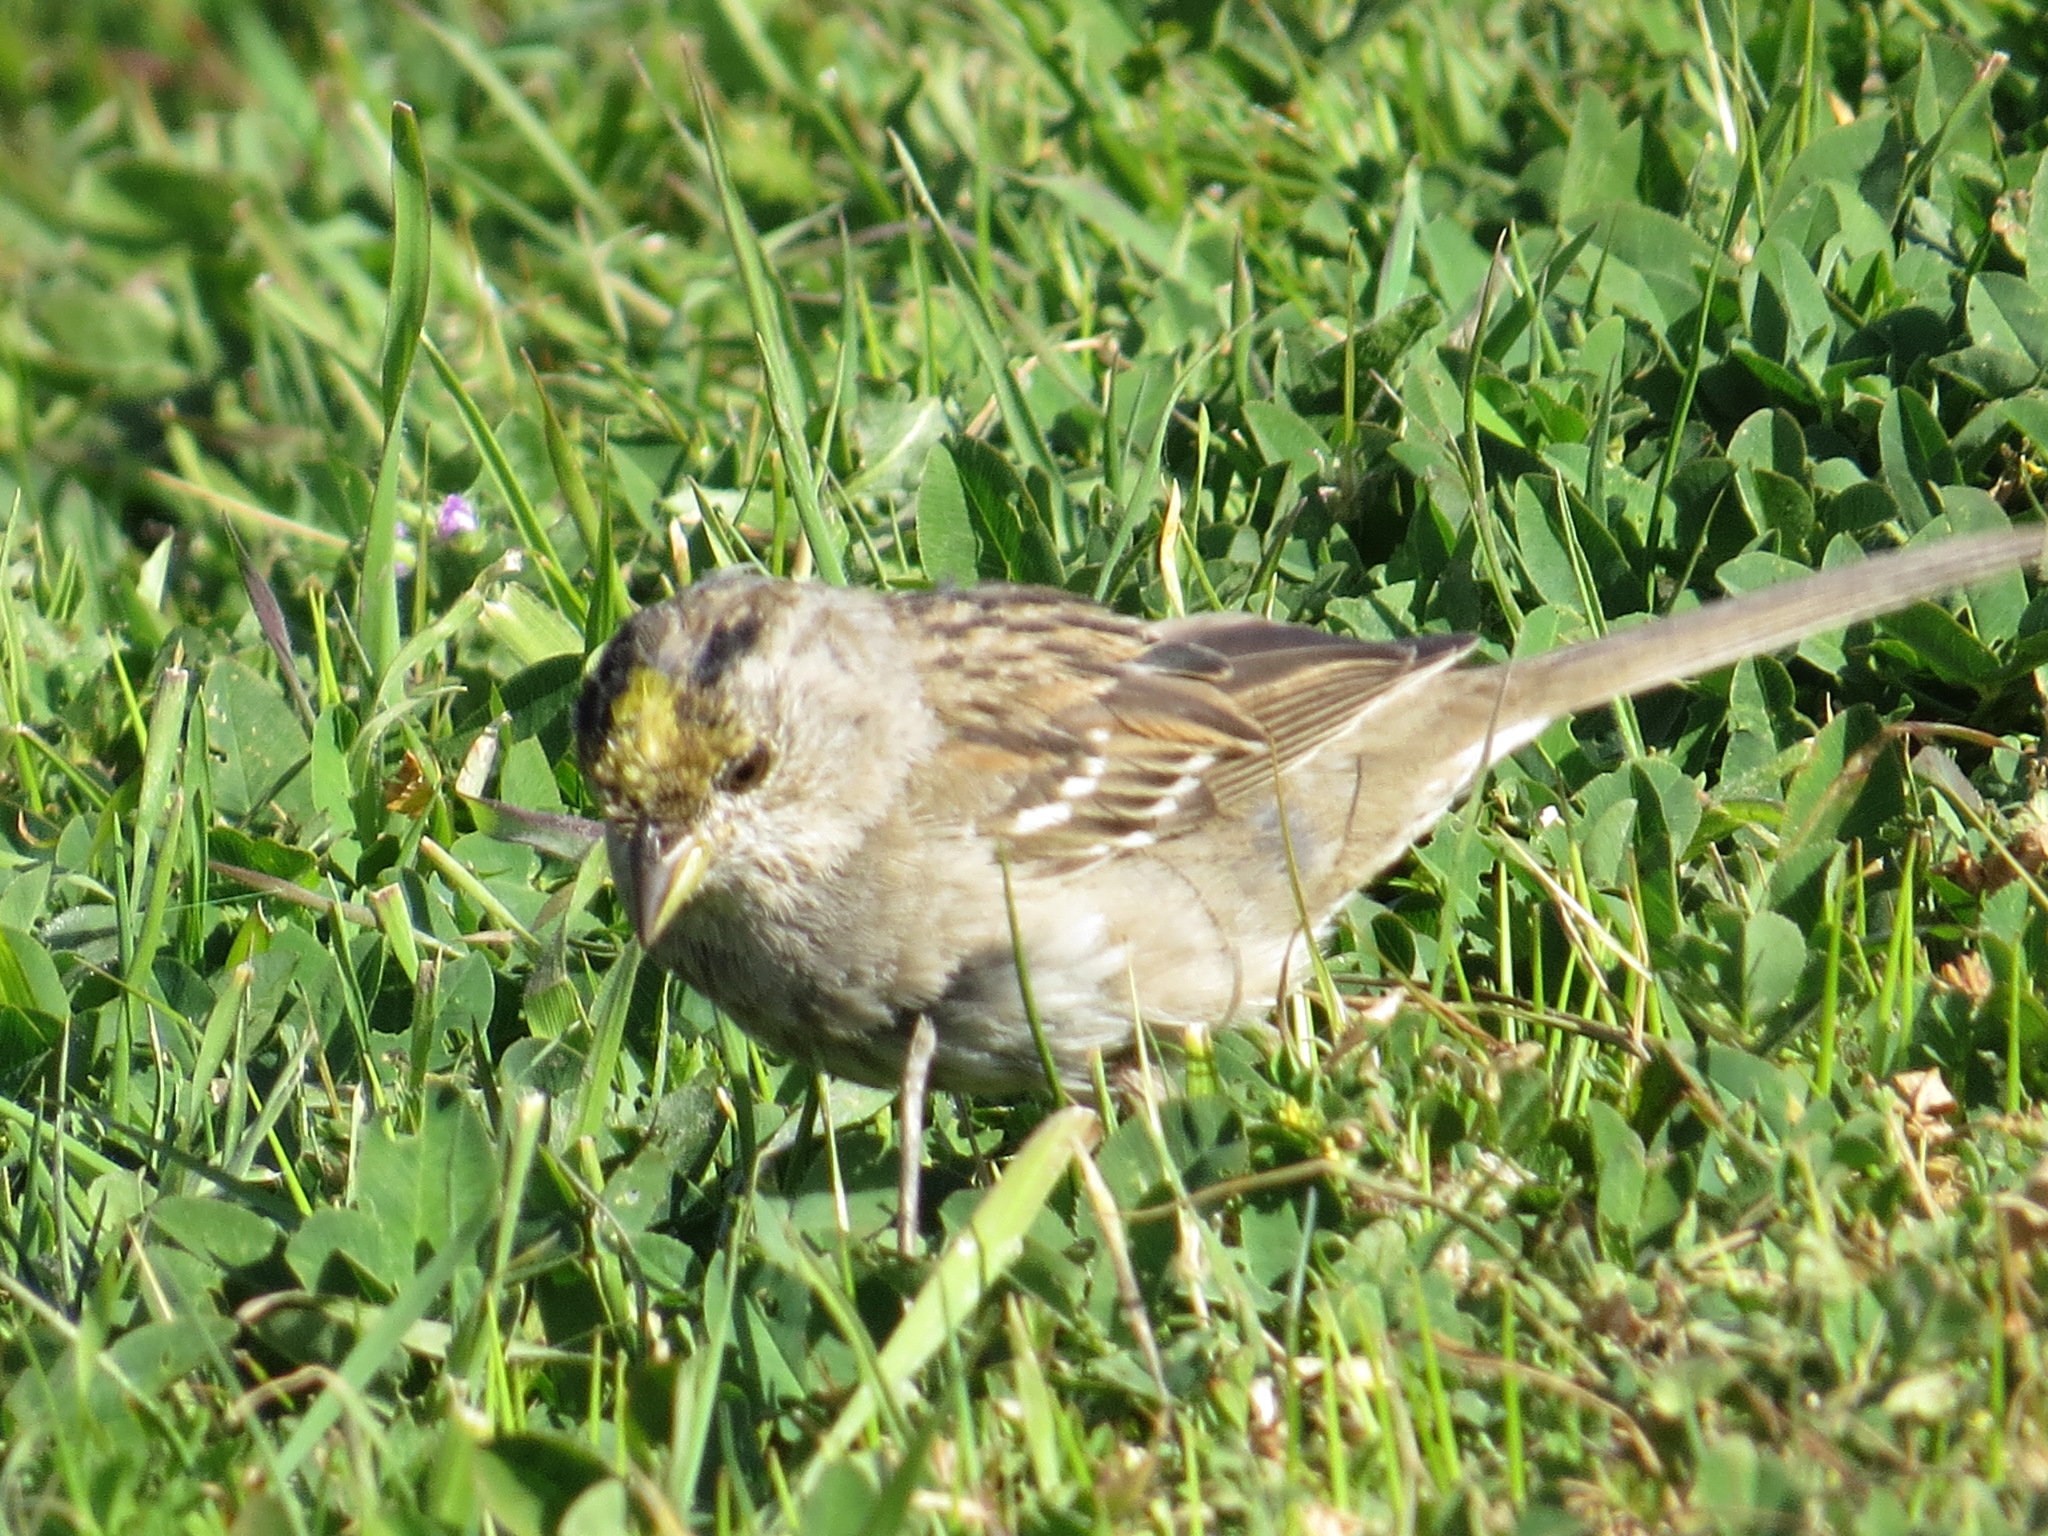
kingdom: Animalia
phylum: Chordata
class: Aves
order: Passeriformes
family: Passerellidae
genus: Zonotrichia
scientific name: Zonotrichia atricapilla
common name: Golden-crowned sparrow
